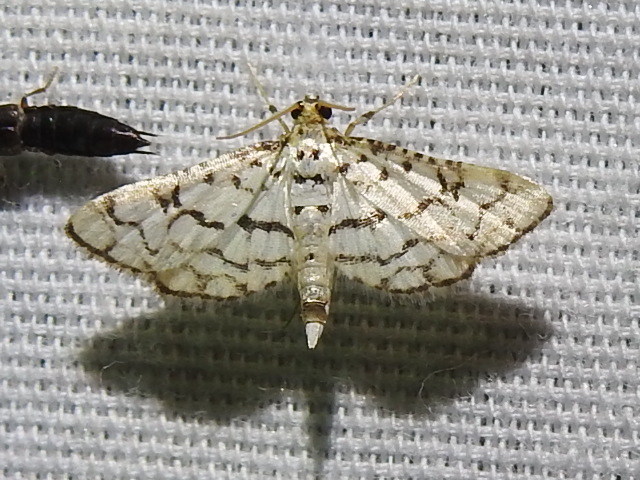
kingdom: Animalia
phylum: Arthropoda
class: Insecta
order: Lepidoptera
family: Crambidae
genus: Hileithia
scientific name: Hileithia aplicalis
